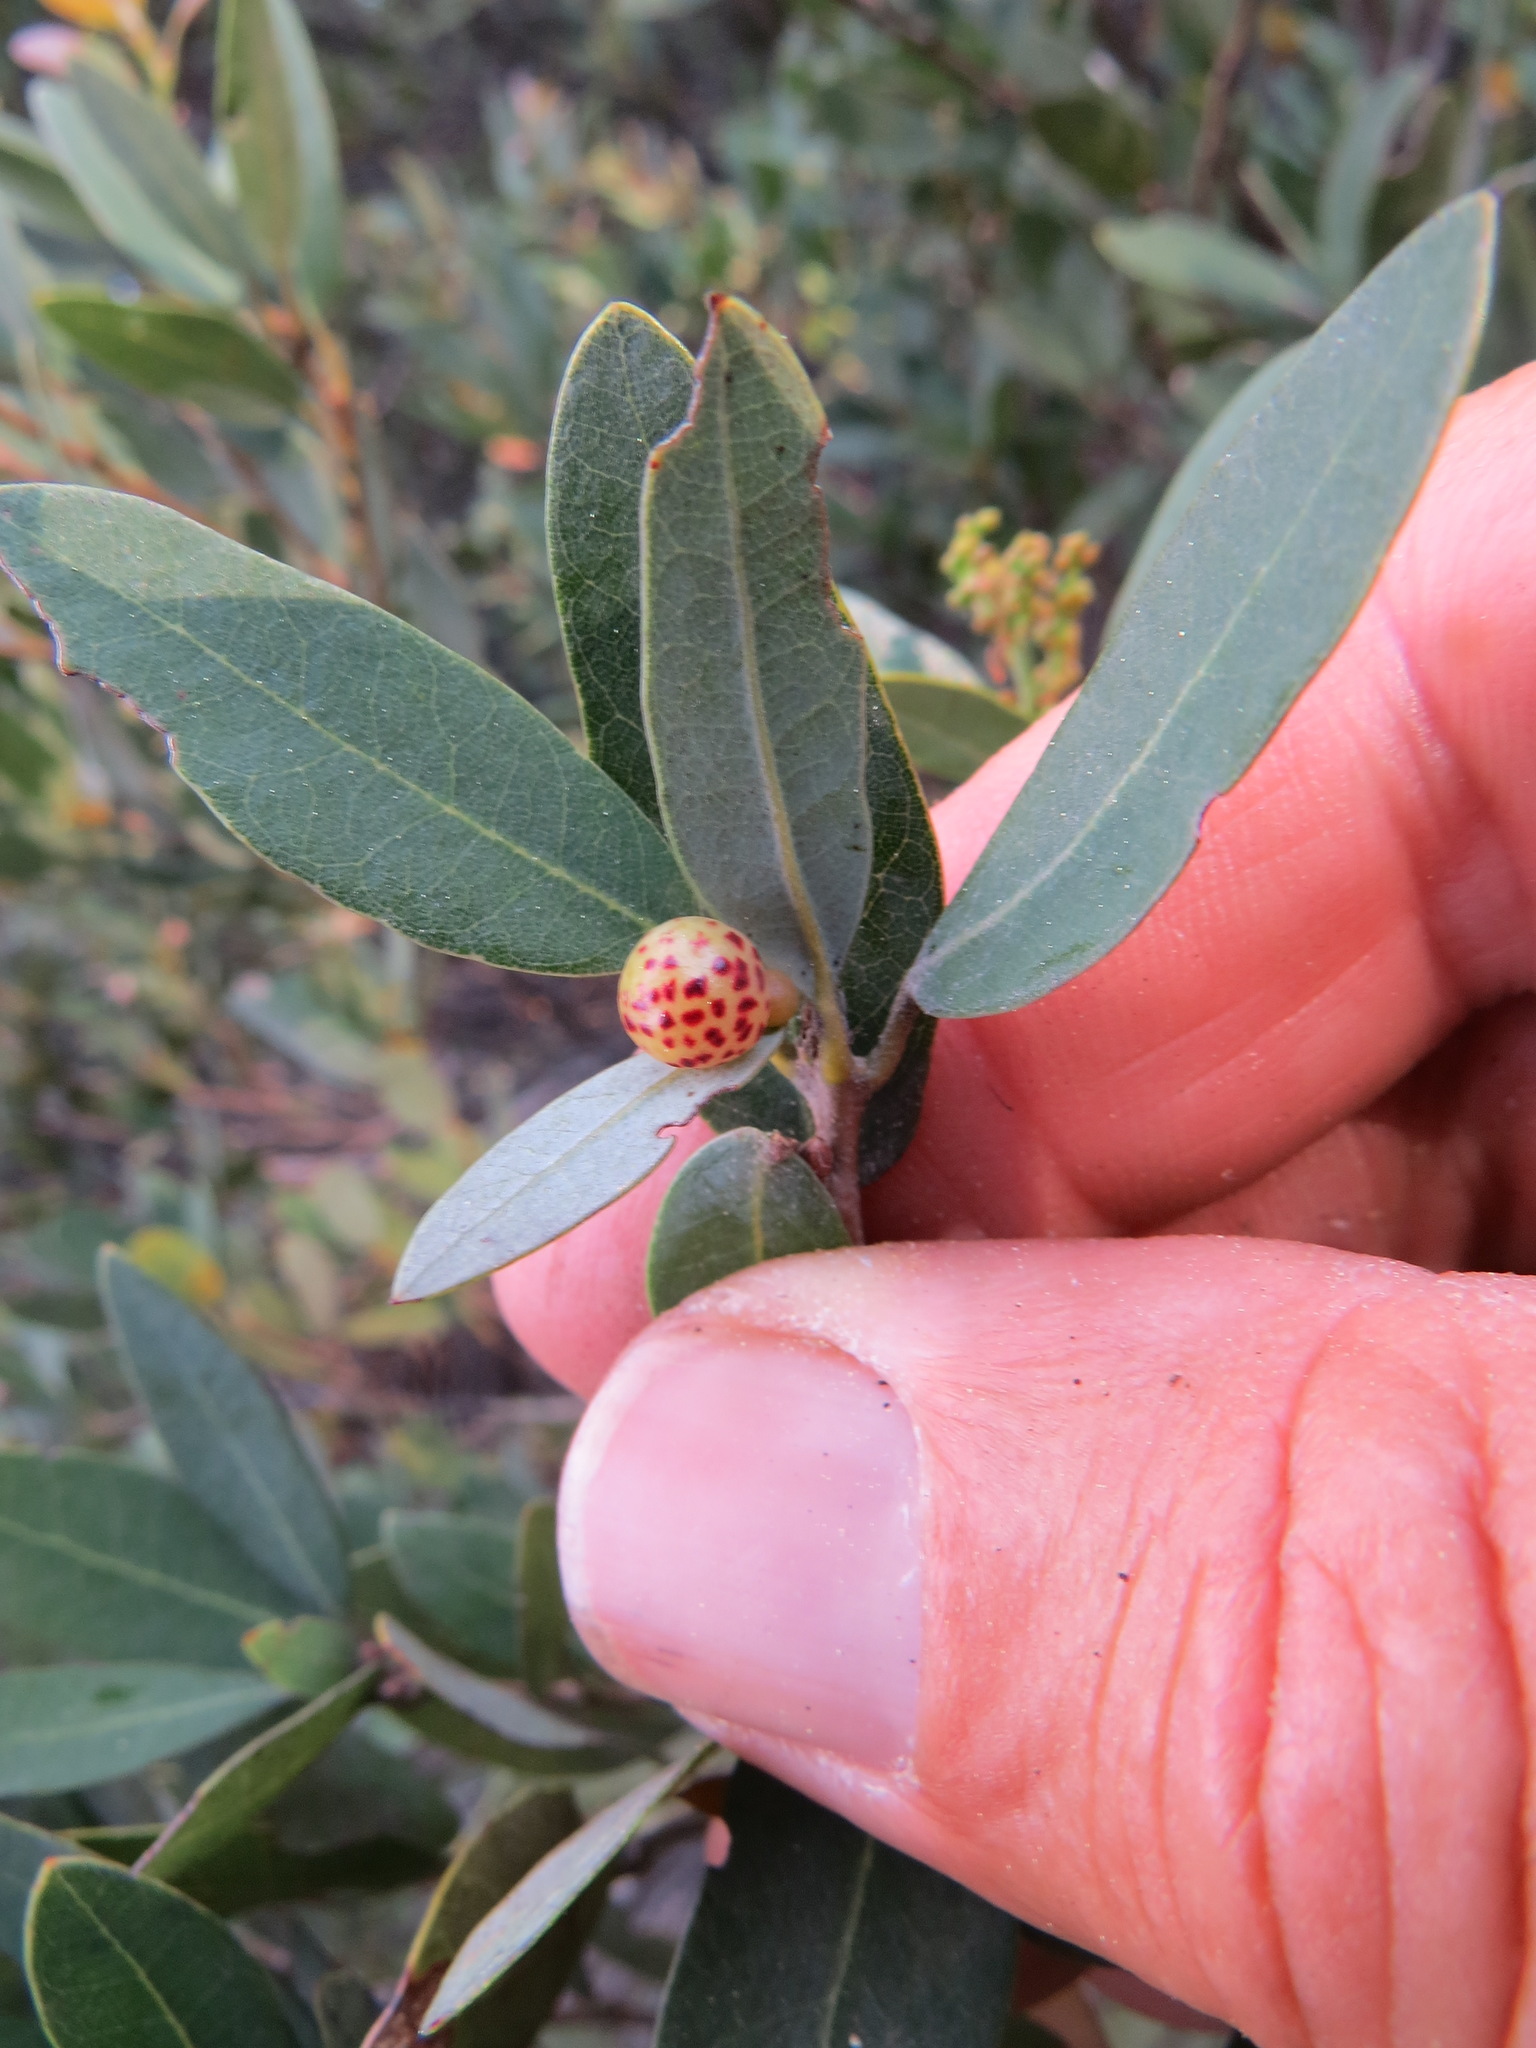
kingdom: Animalia
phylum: Arthropoda
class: Insecta
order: Hymenoptera
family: Cynipidae
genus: Andricus
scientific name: Andricus
